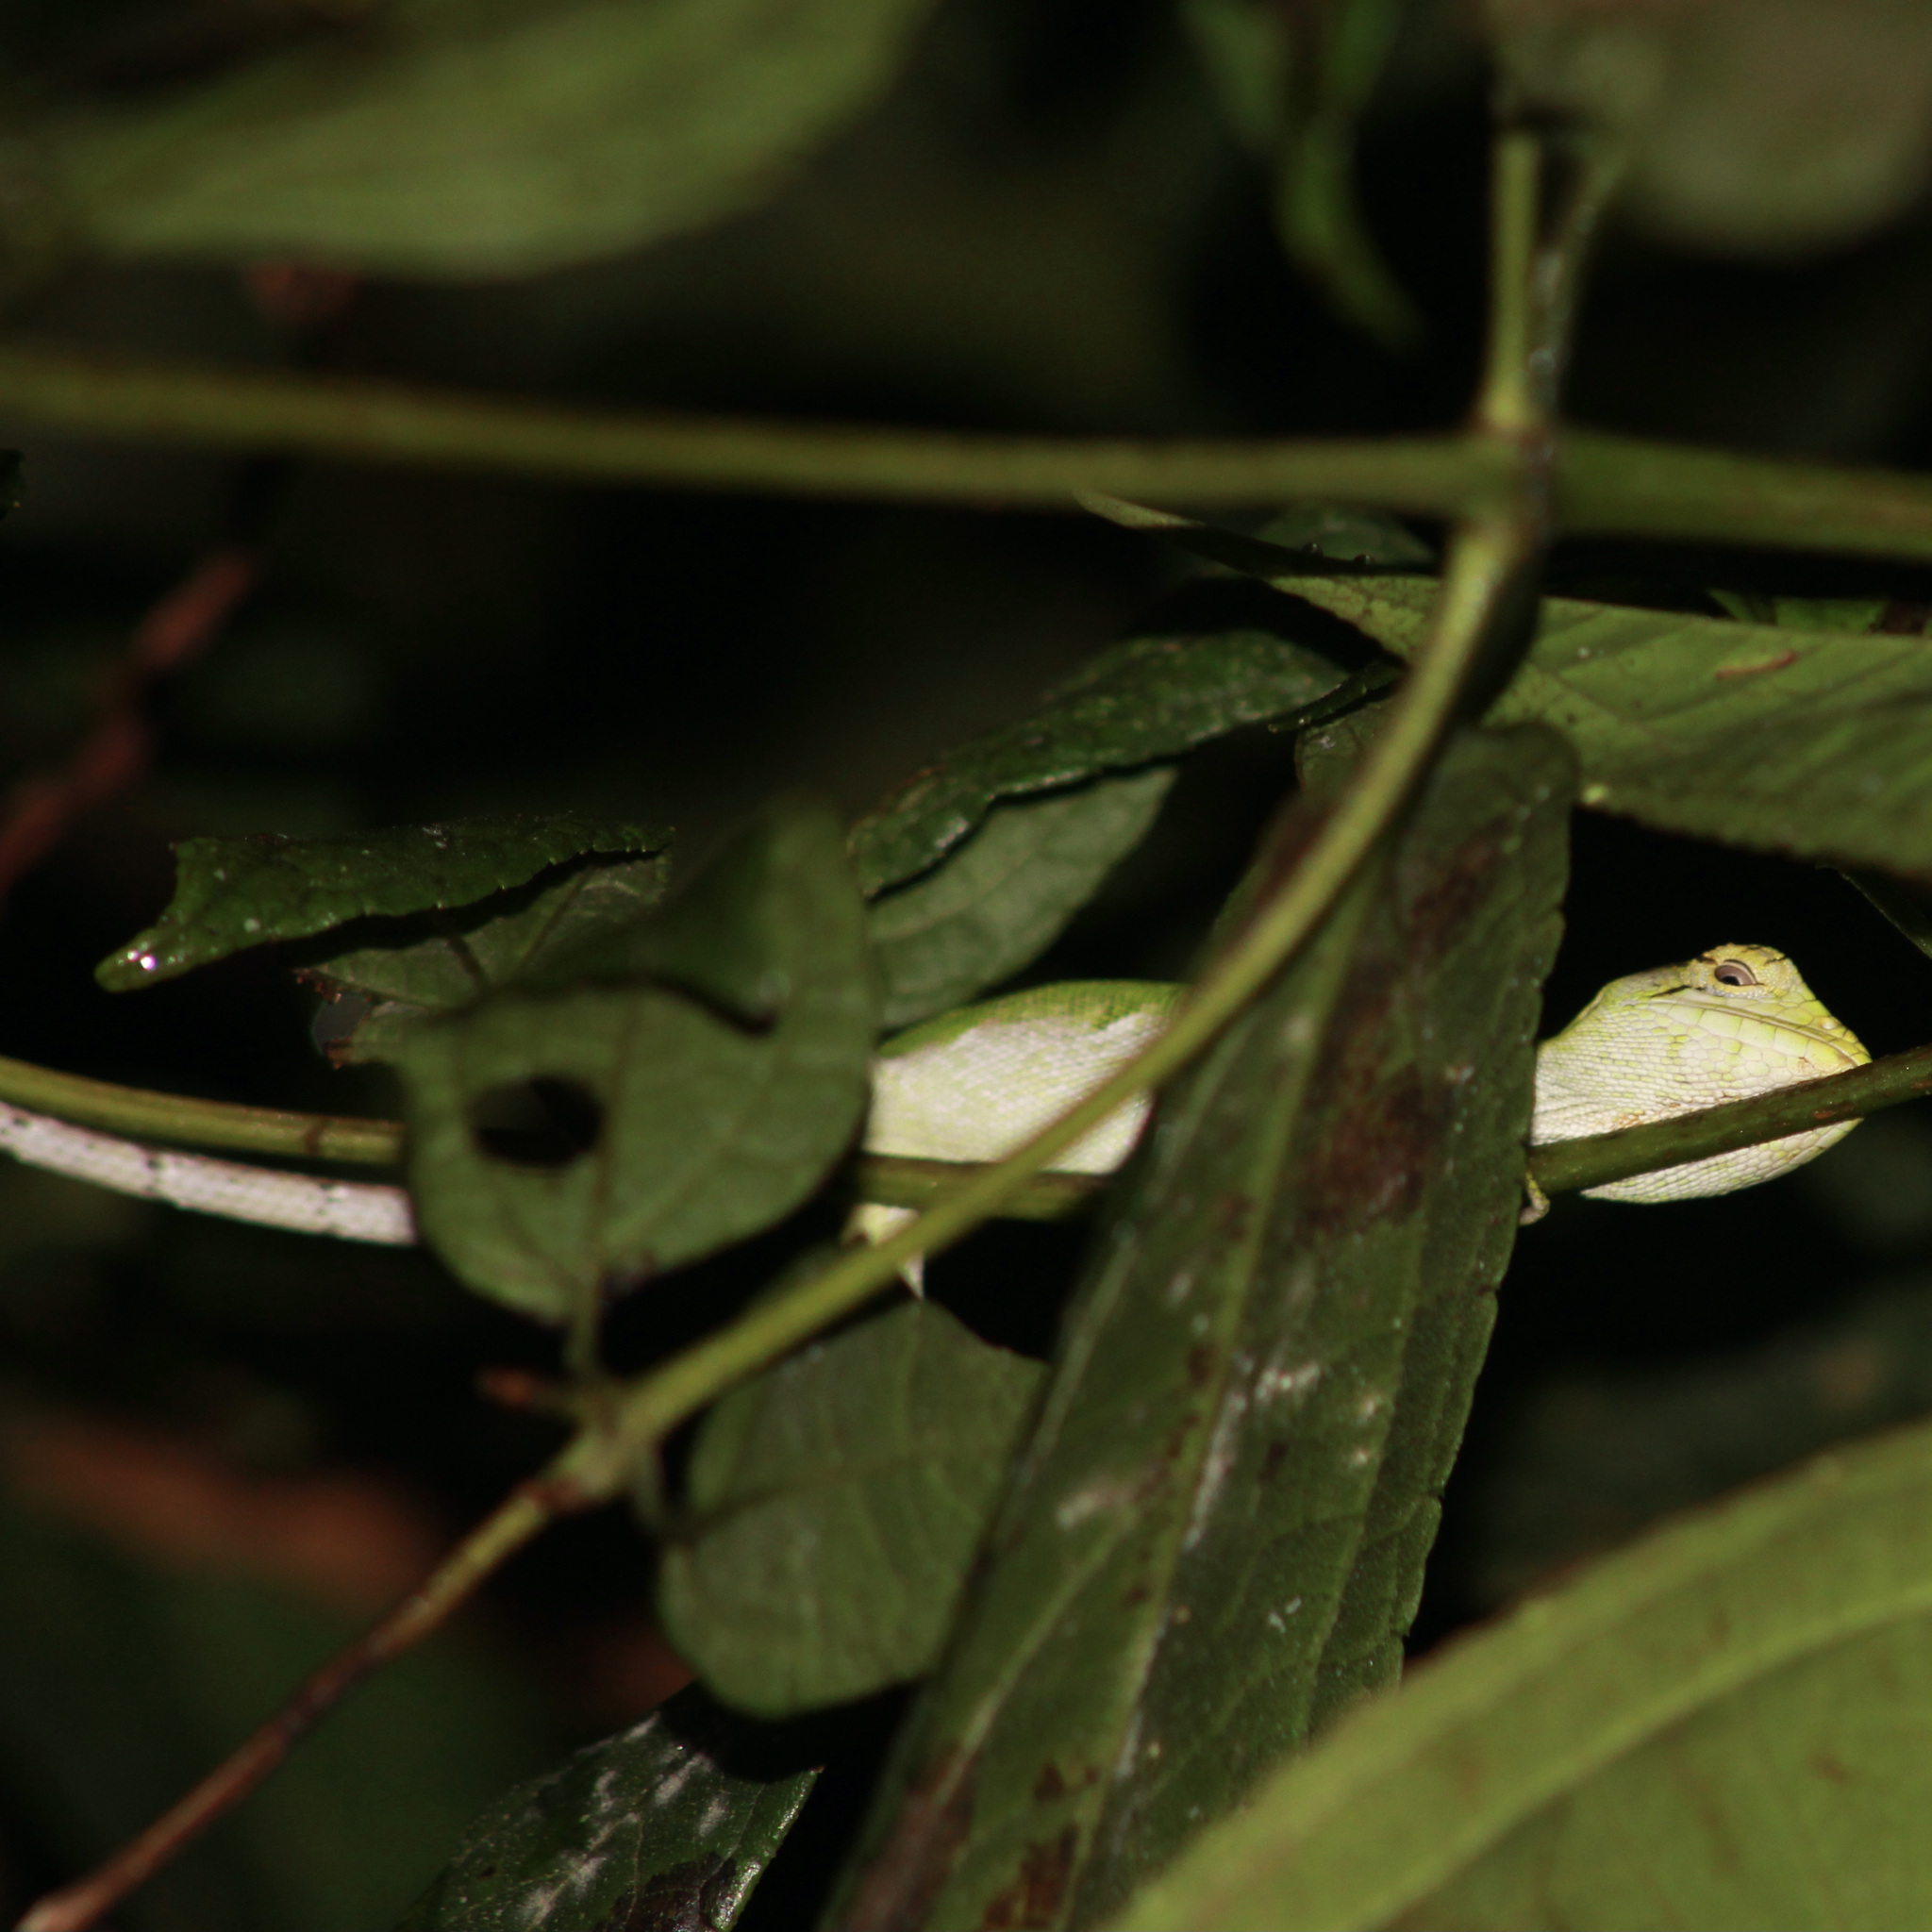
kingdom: Animalia
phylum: Chordata
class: Squamata
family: Polychrotidae
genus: Polychrus
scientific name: Polychrus auduboni
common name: Common monkey lizard
